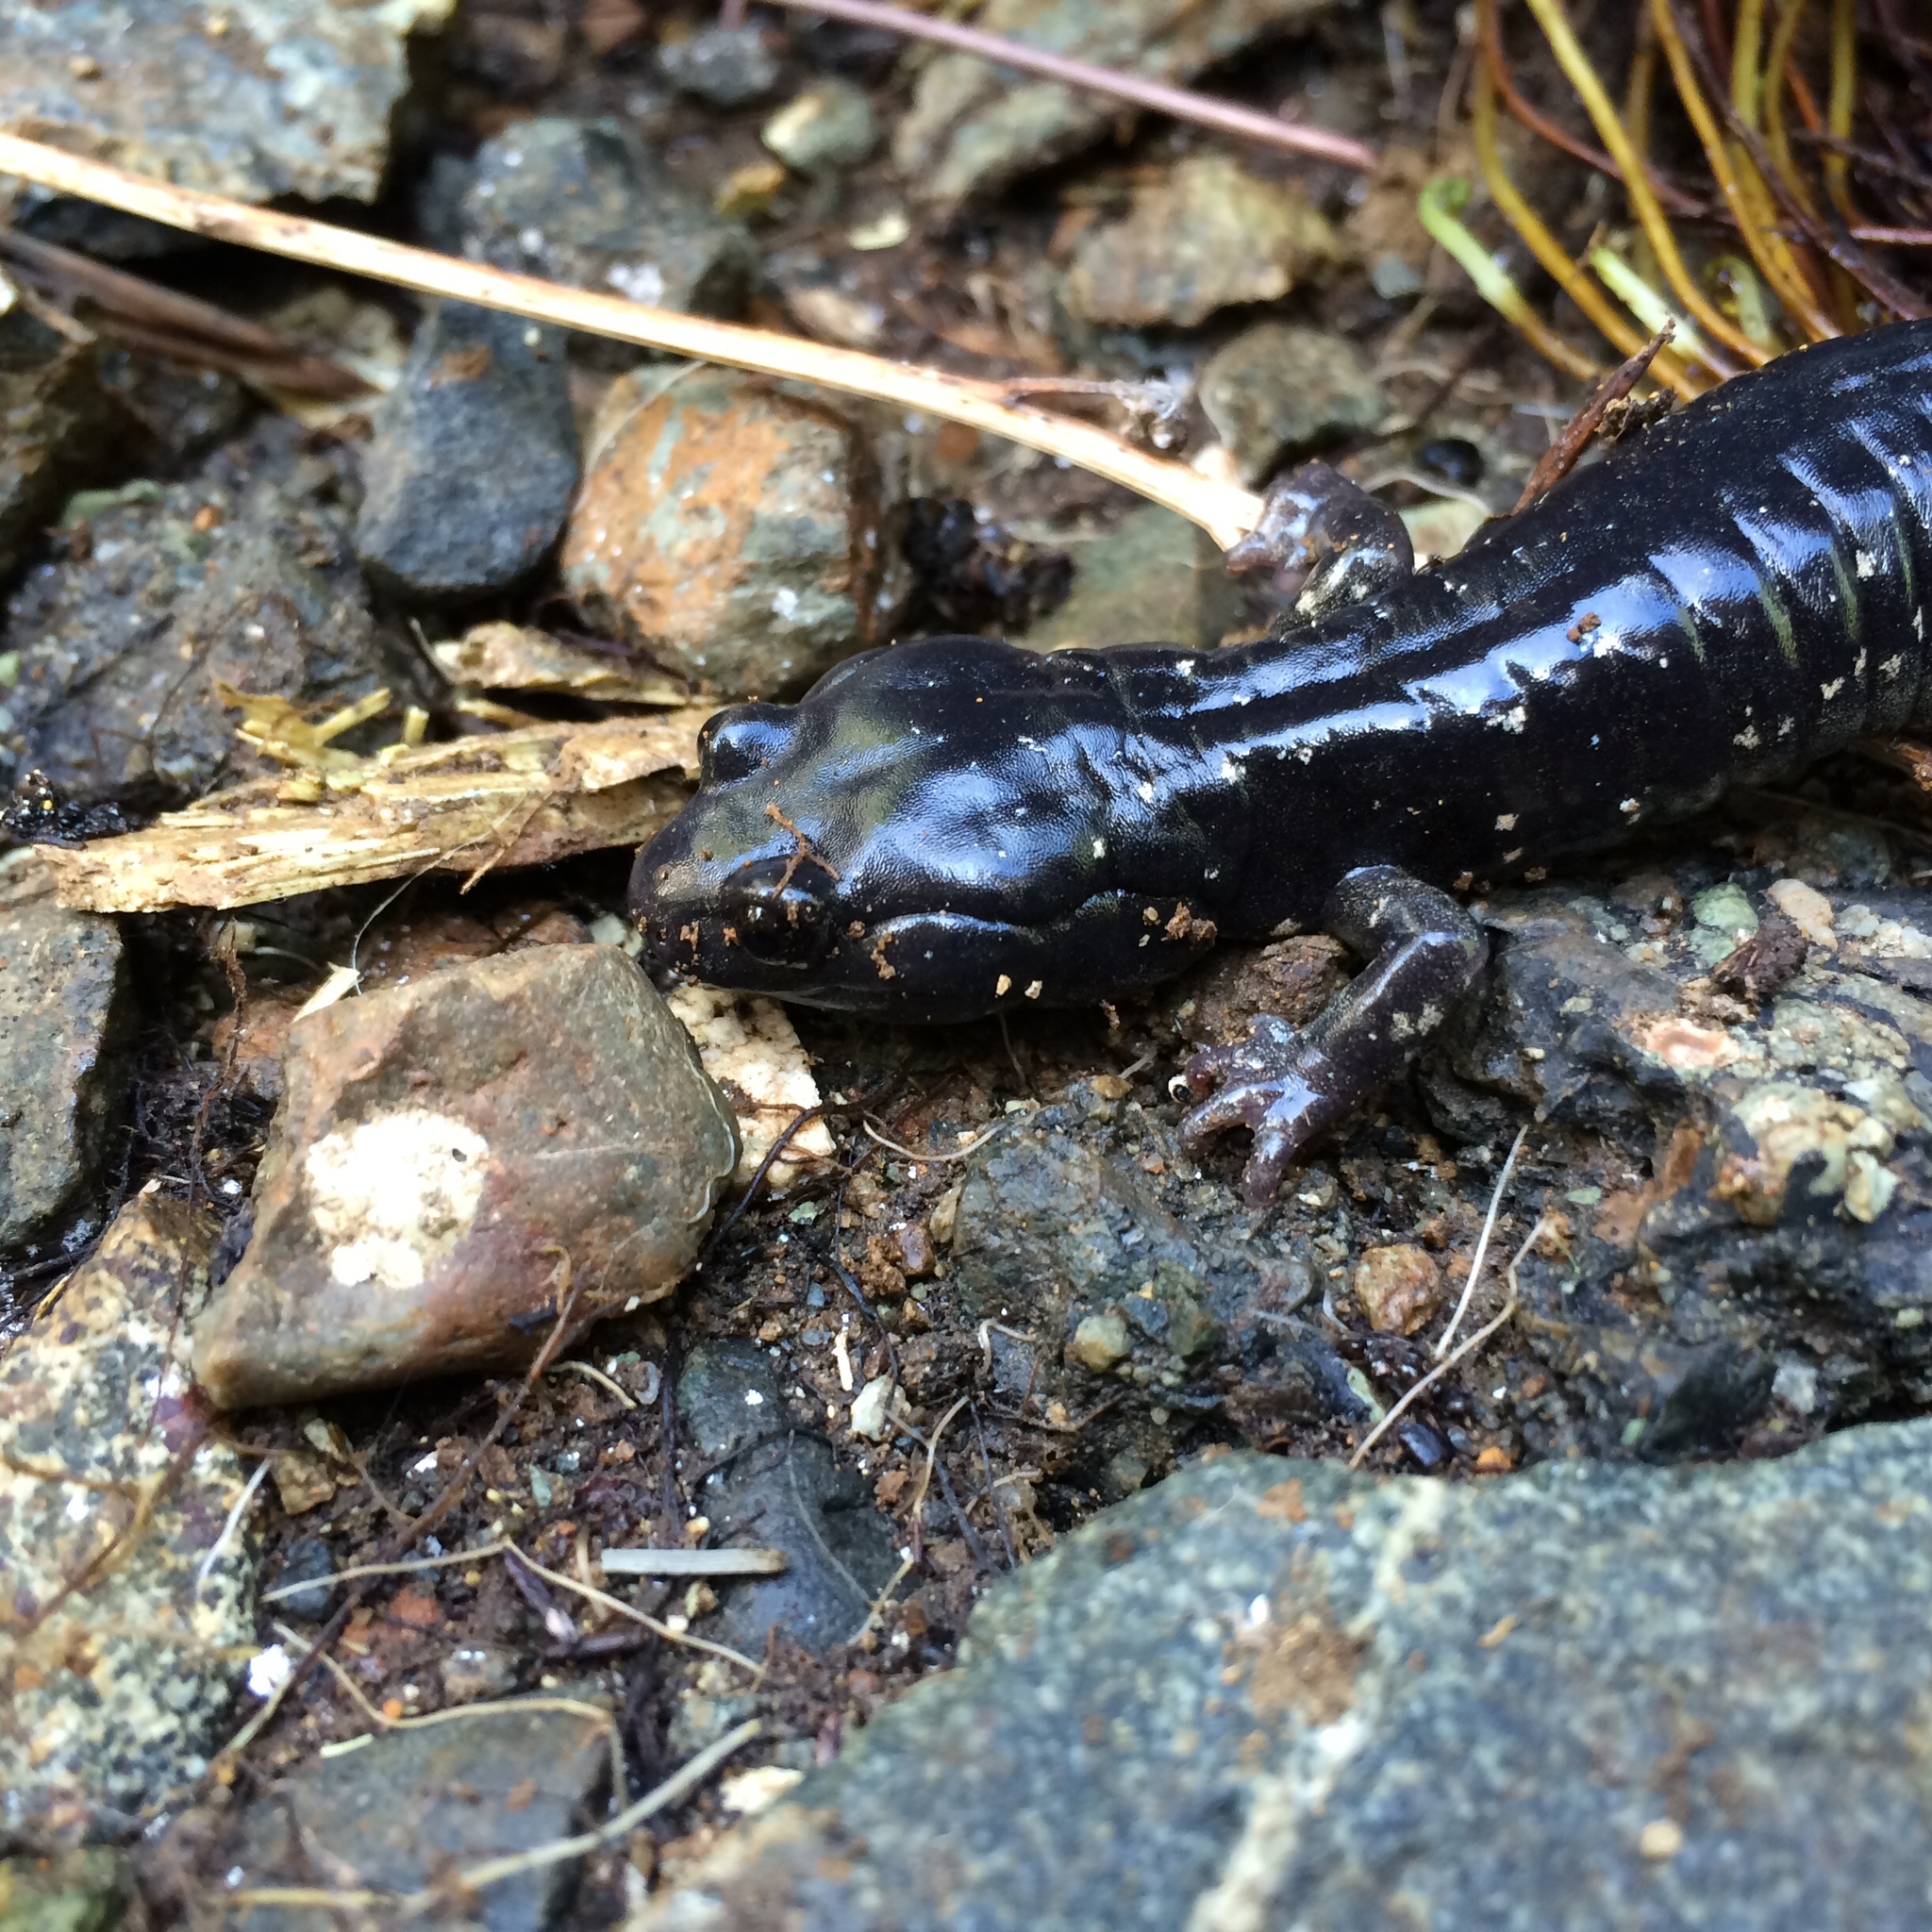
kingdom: Animalia
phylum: Chordata
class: Amphibia
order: Caudata
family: Plethodontidae
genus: Aneides
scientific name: Aneides klamathensis
